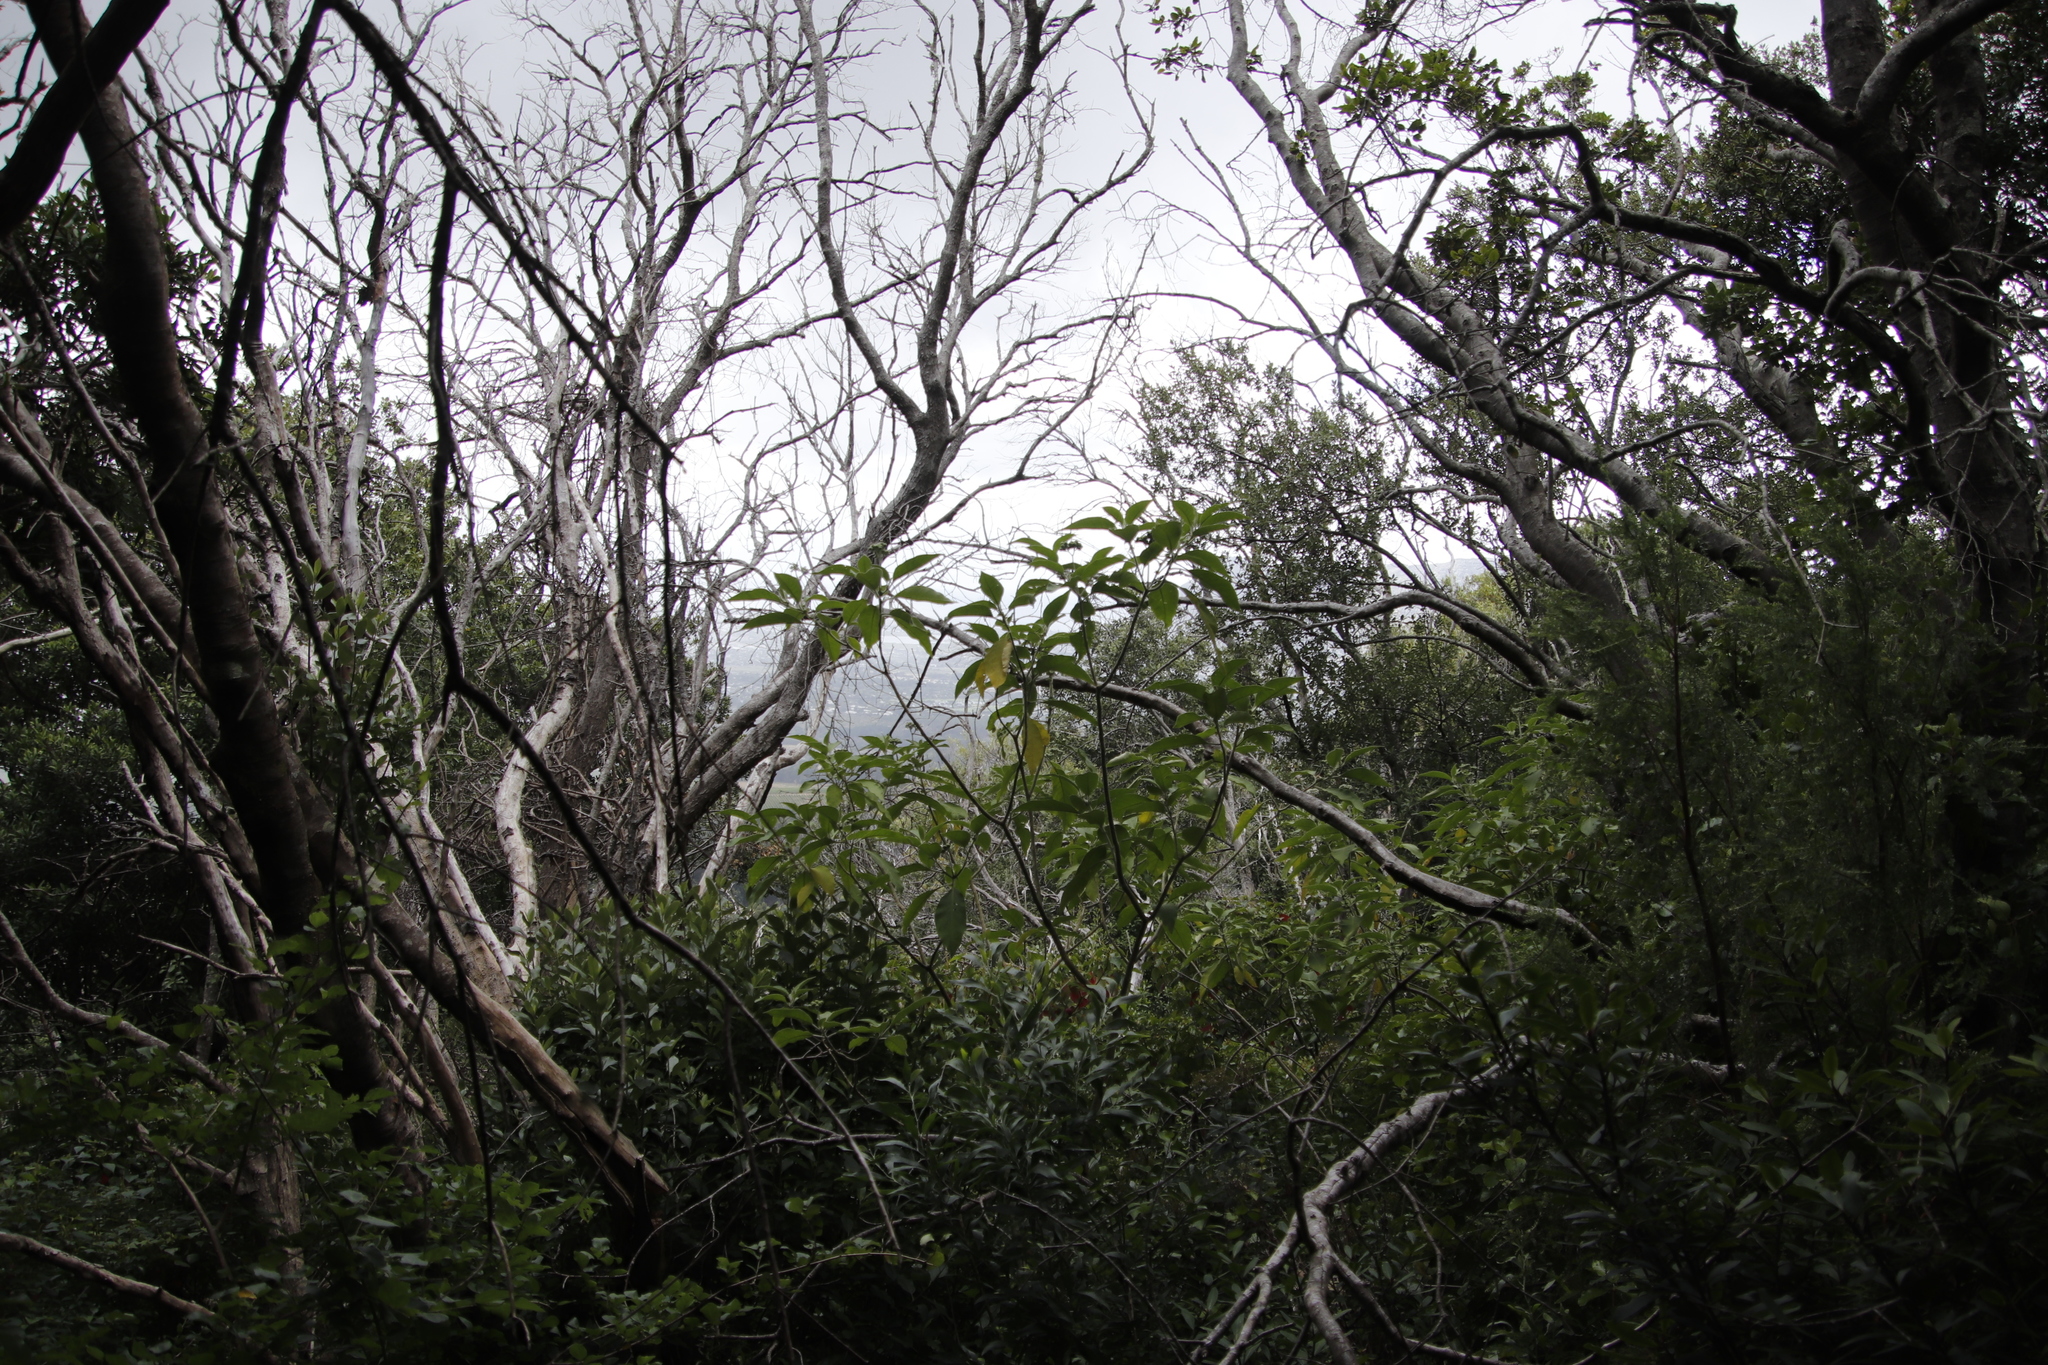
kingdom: Plantae
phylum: Tracheophyta
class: Magnoliopsida
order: Solanales
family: Solanaceae
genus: Solanum
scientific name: Solanum mauritianum
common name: Earleaf nightshade
